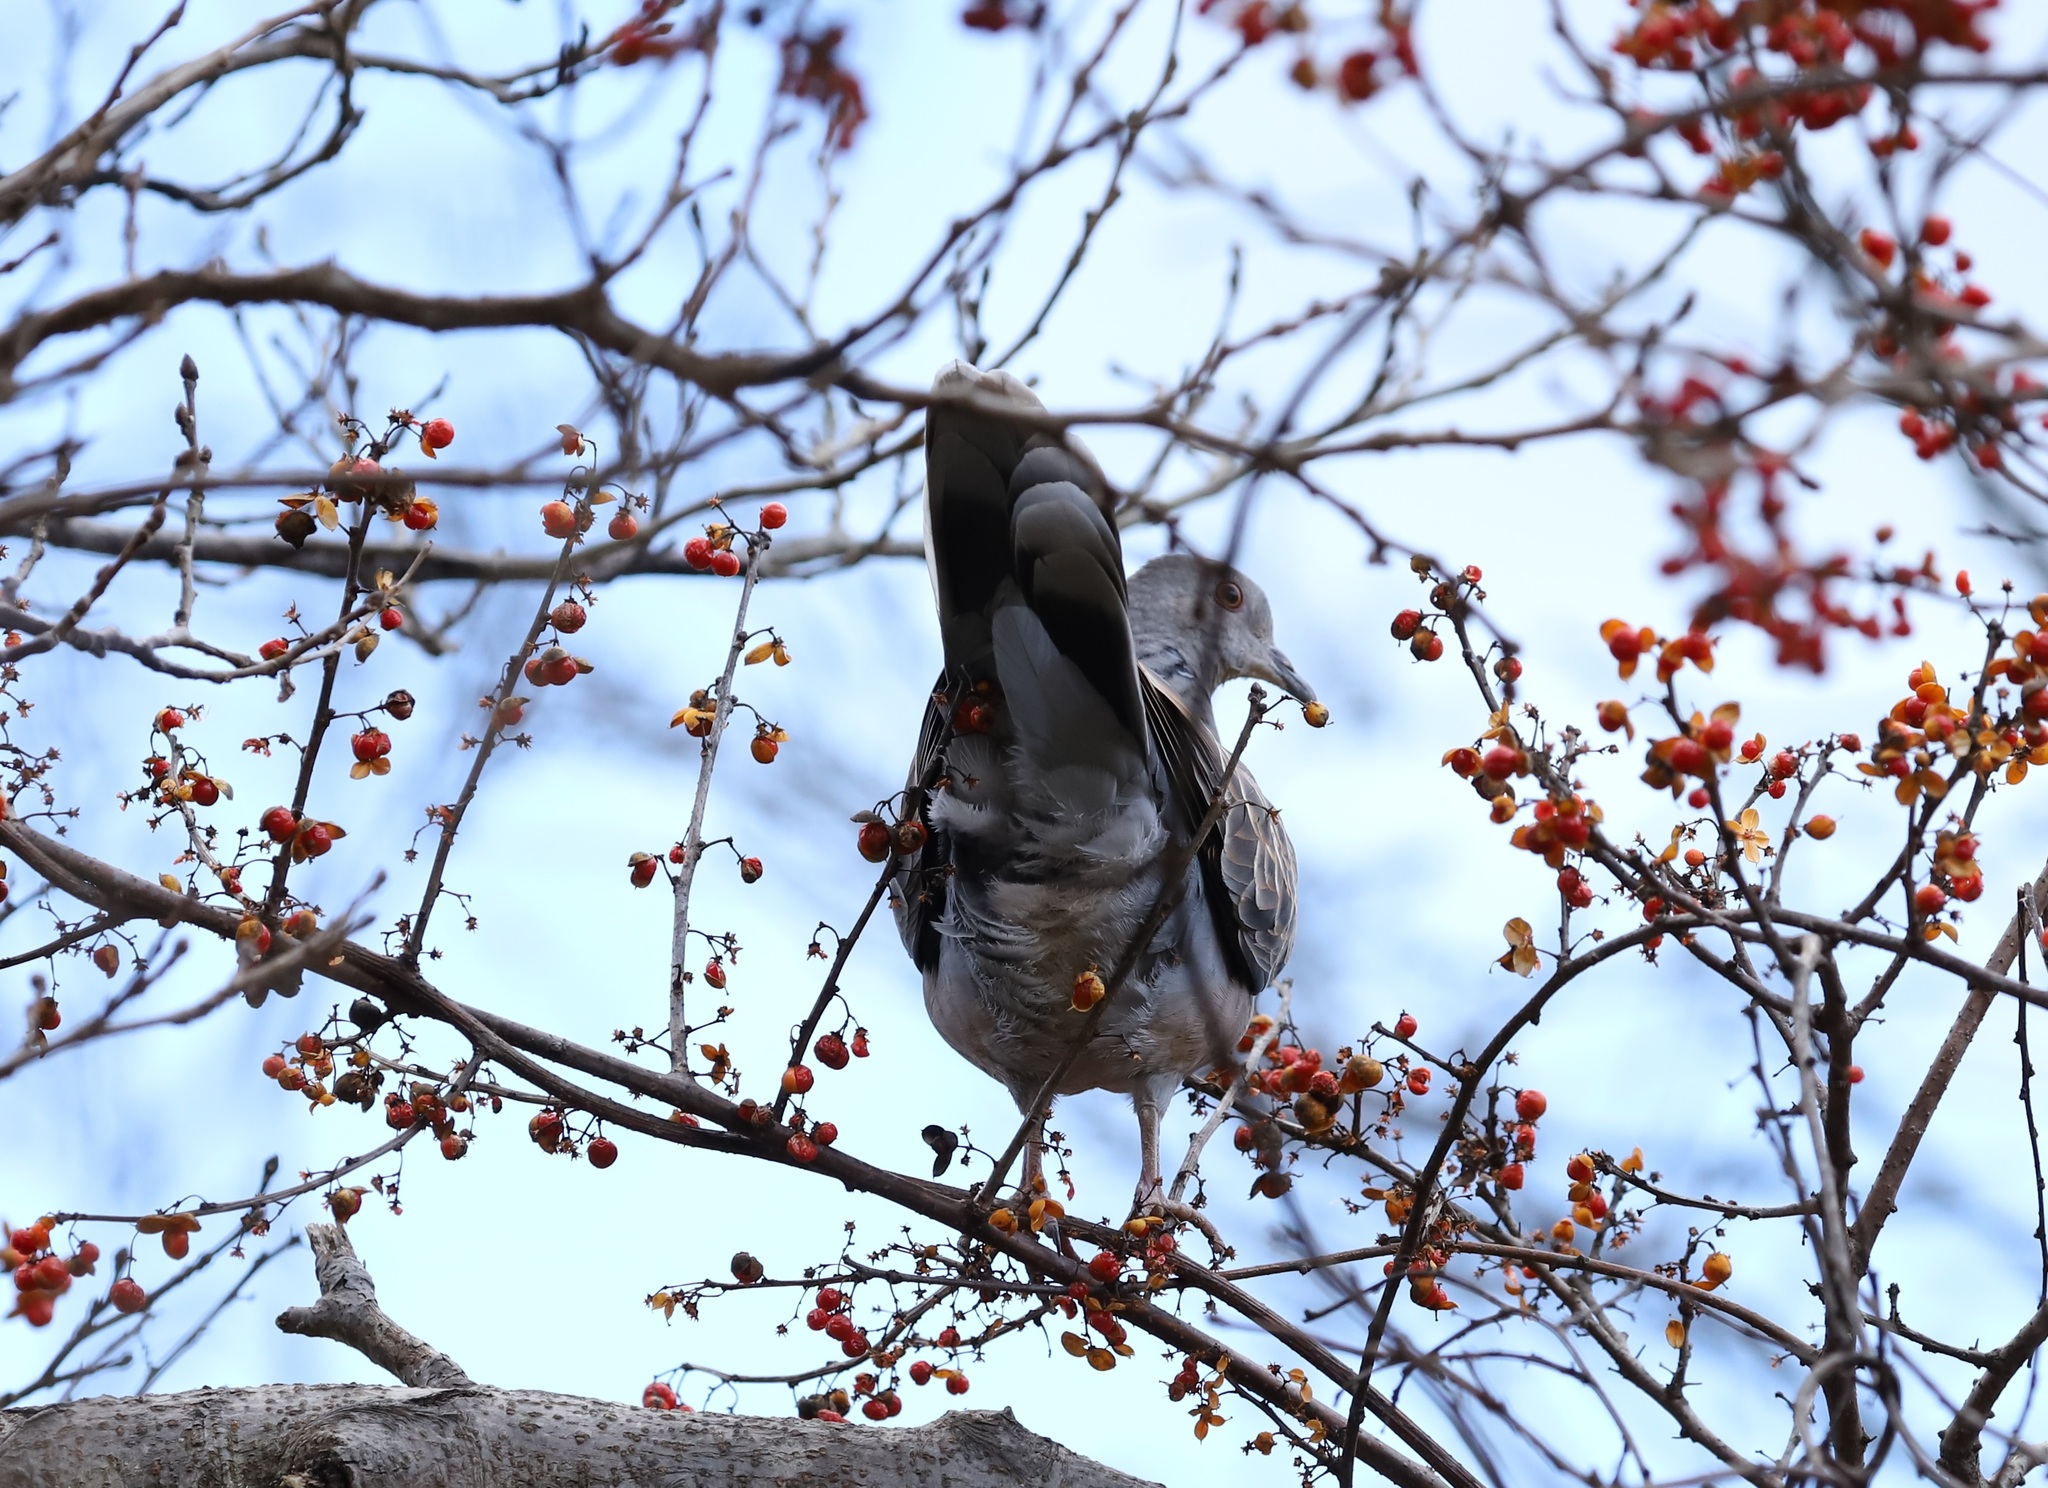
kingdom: Animalia
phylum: Chordata
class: Aves
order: Columbiformes
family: Columbidae
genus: Streptopelia
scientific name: Streptopelia orientalis
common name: Oriental turtle dove
